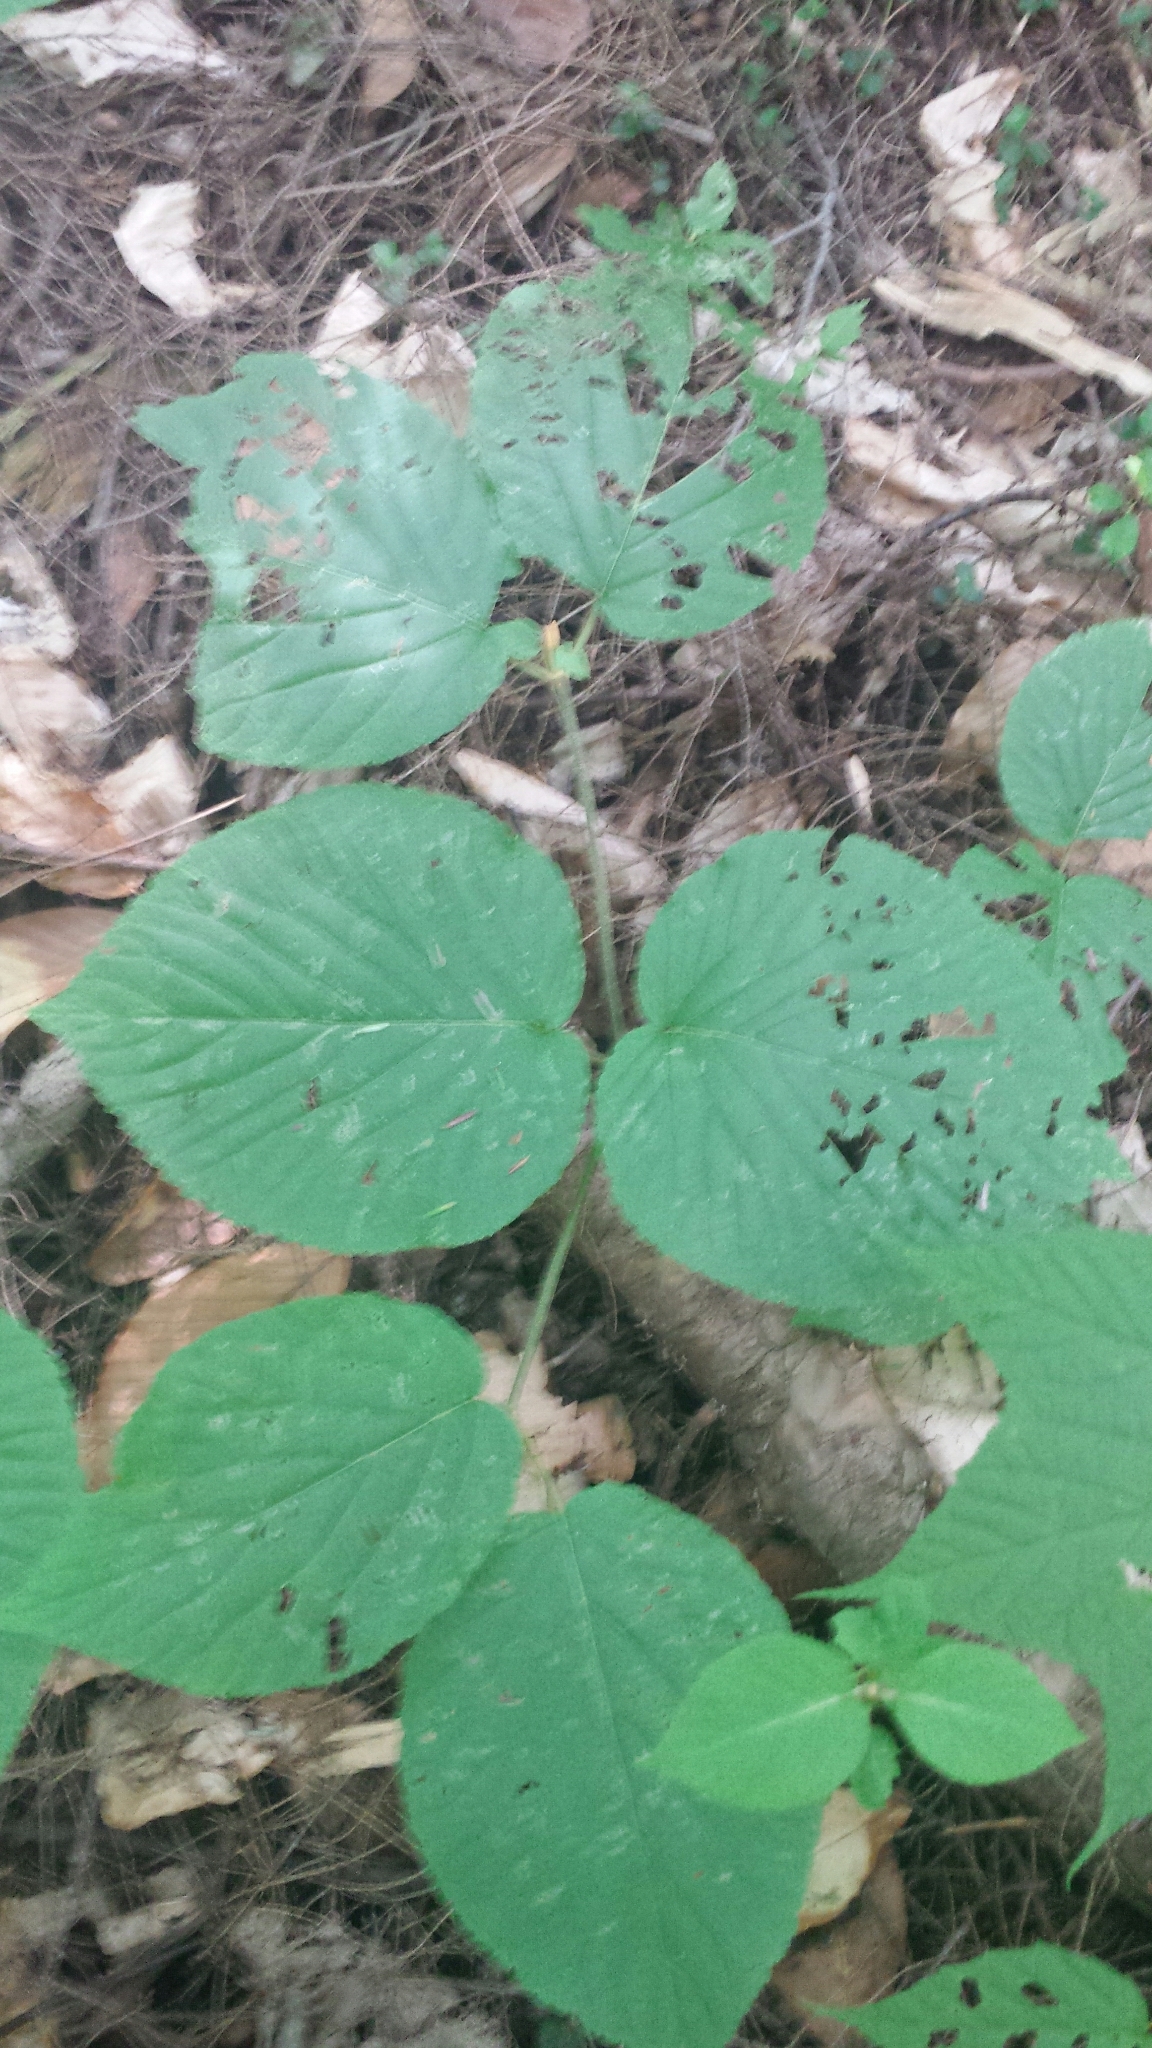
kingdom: Plantae
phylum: Tracheophyta
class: Magnoliopsida
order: Dipsacales
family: Viburnaceae
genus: Viburnum
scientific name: Viburnum lantanoides
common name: Hobblebush
